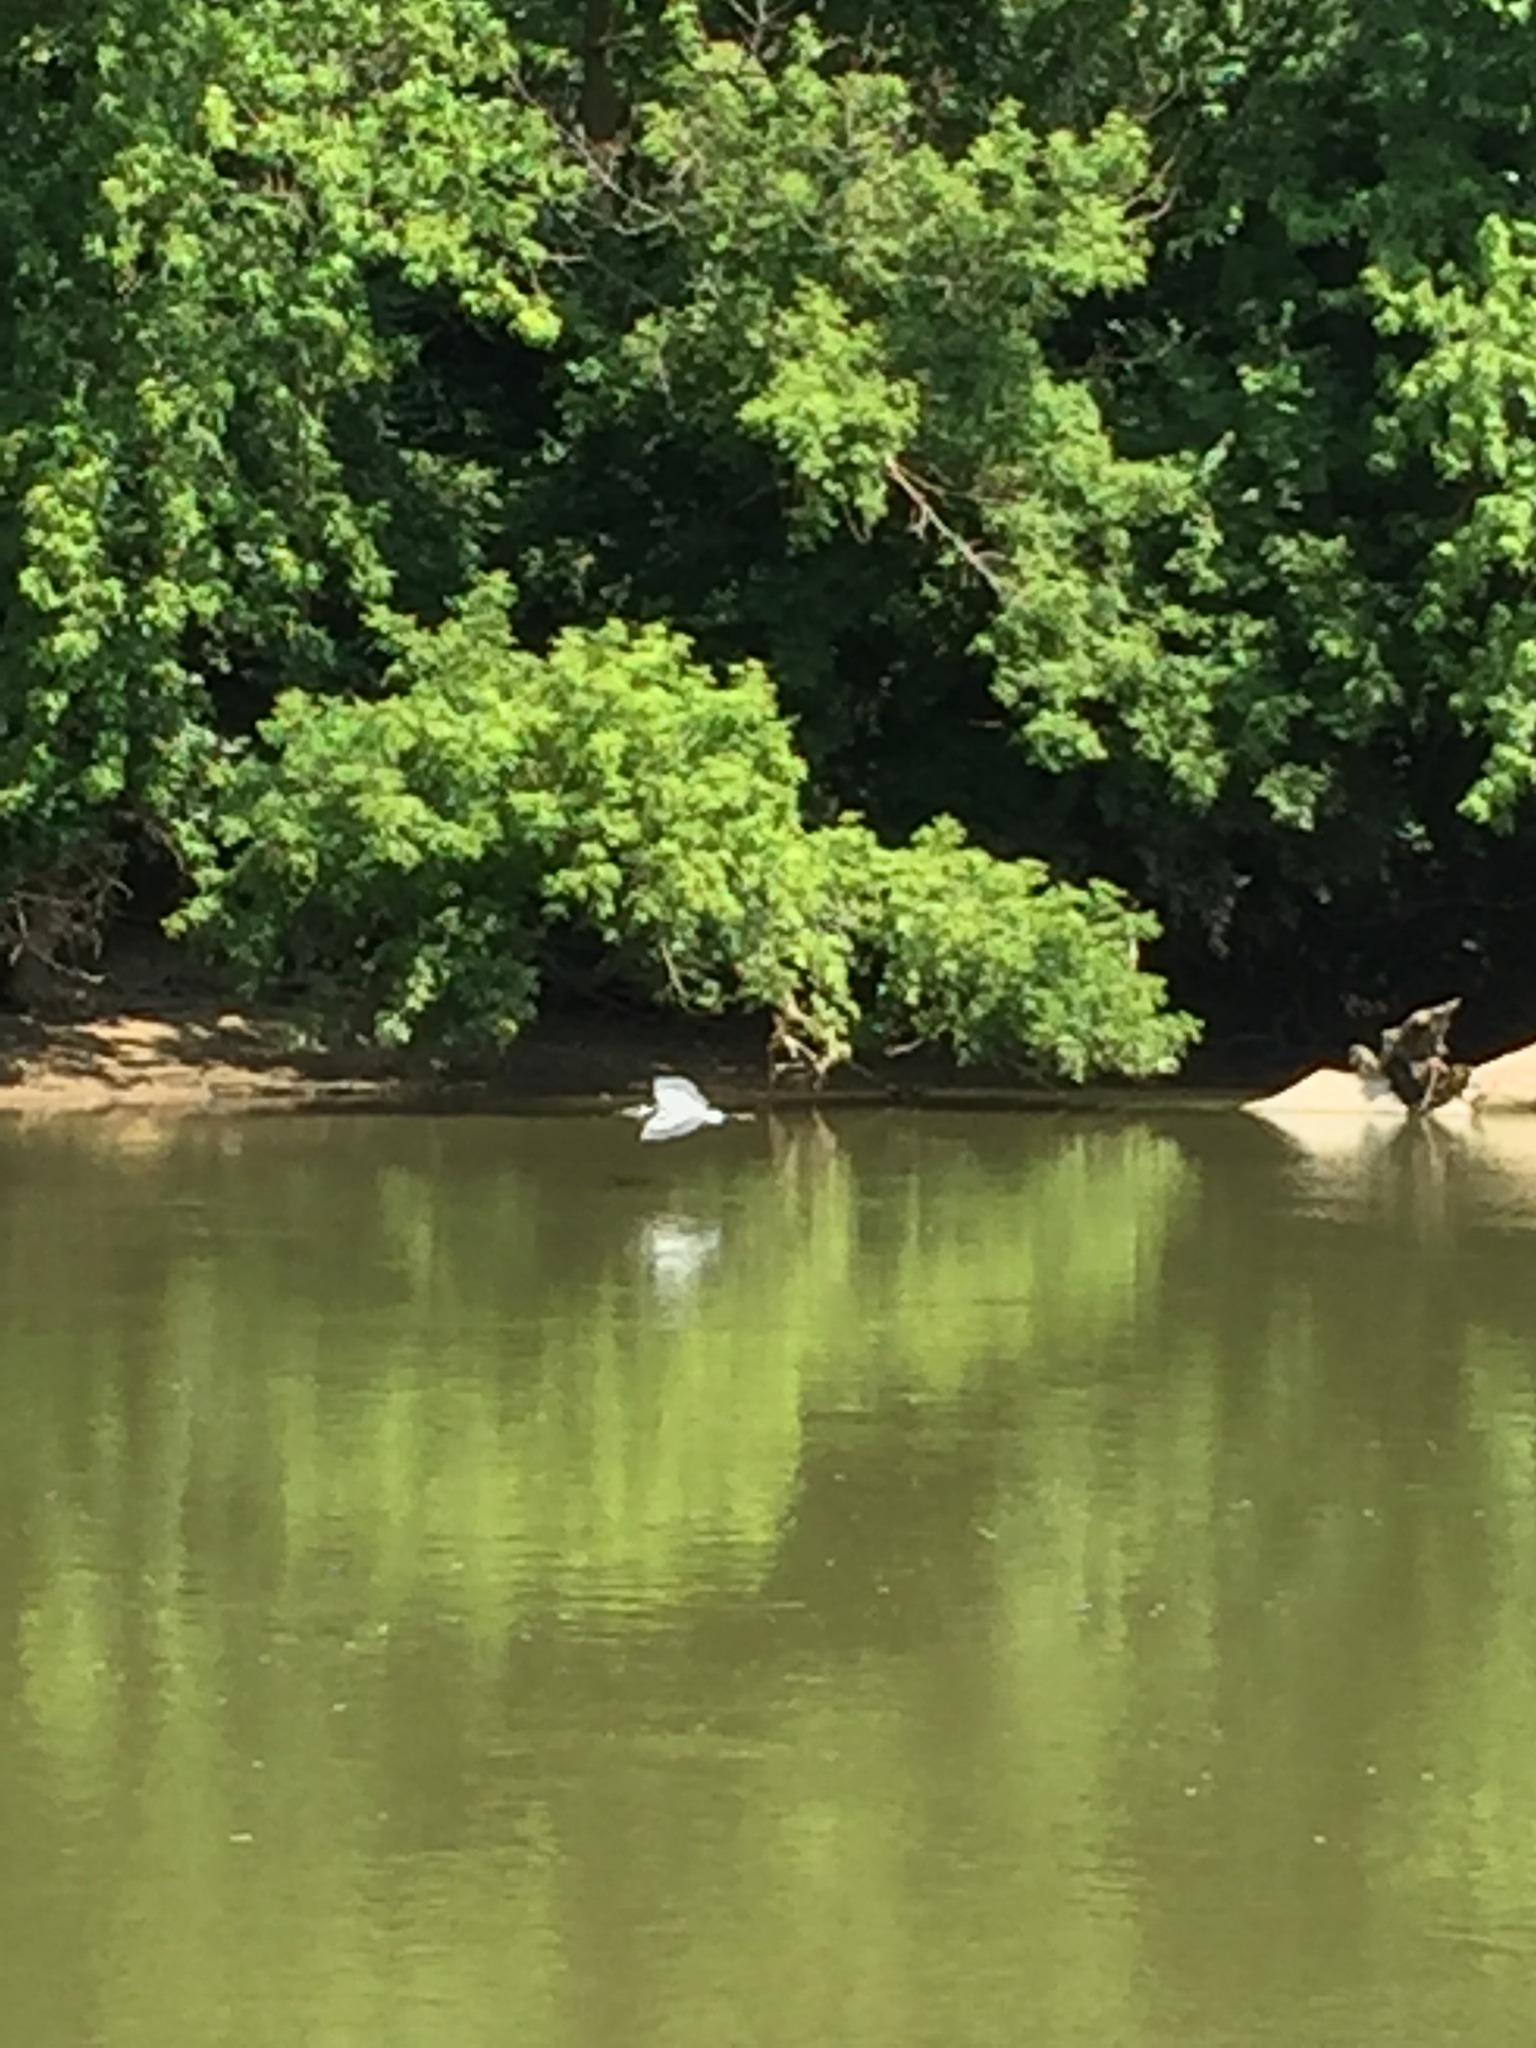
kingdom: Animalia
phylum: Chordata
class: Aves
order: Pelecaniformes
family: Ardeidae
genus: Ardea
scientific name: Ardea herodias
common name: Great blue heron
